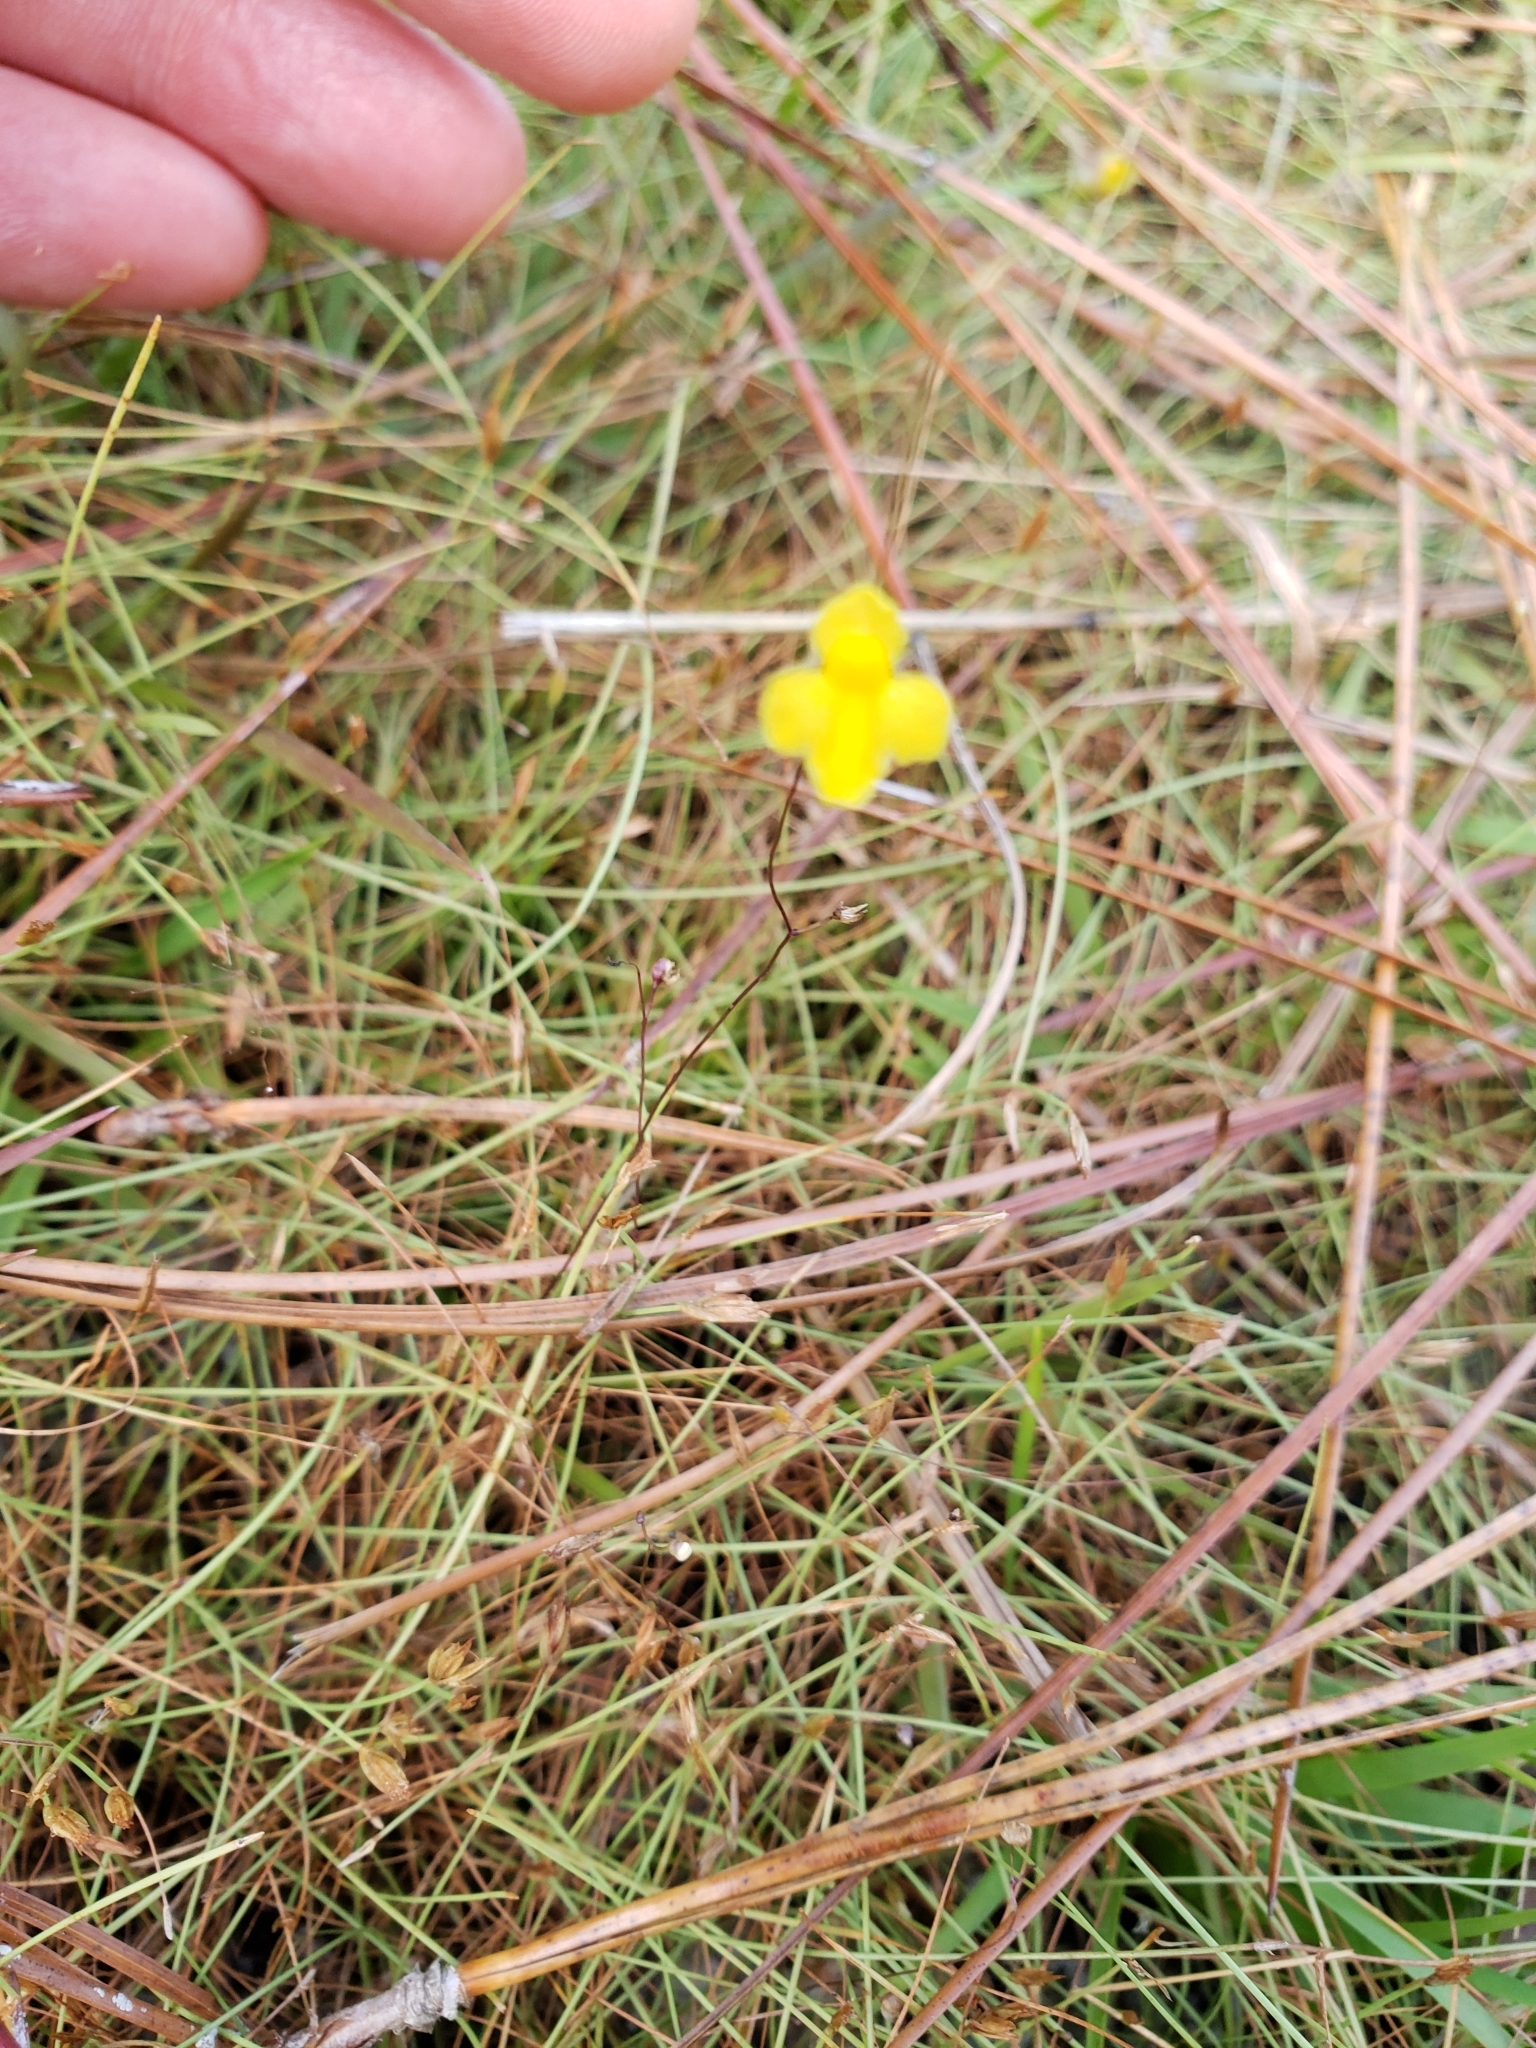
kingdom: Plantae
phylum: Tracheophyta
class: Magnoliopsida
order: Lamiales
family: Lentibulariaceae
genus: Utricularia
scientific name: Utricularia subulata
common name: Tiny bladderwort
